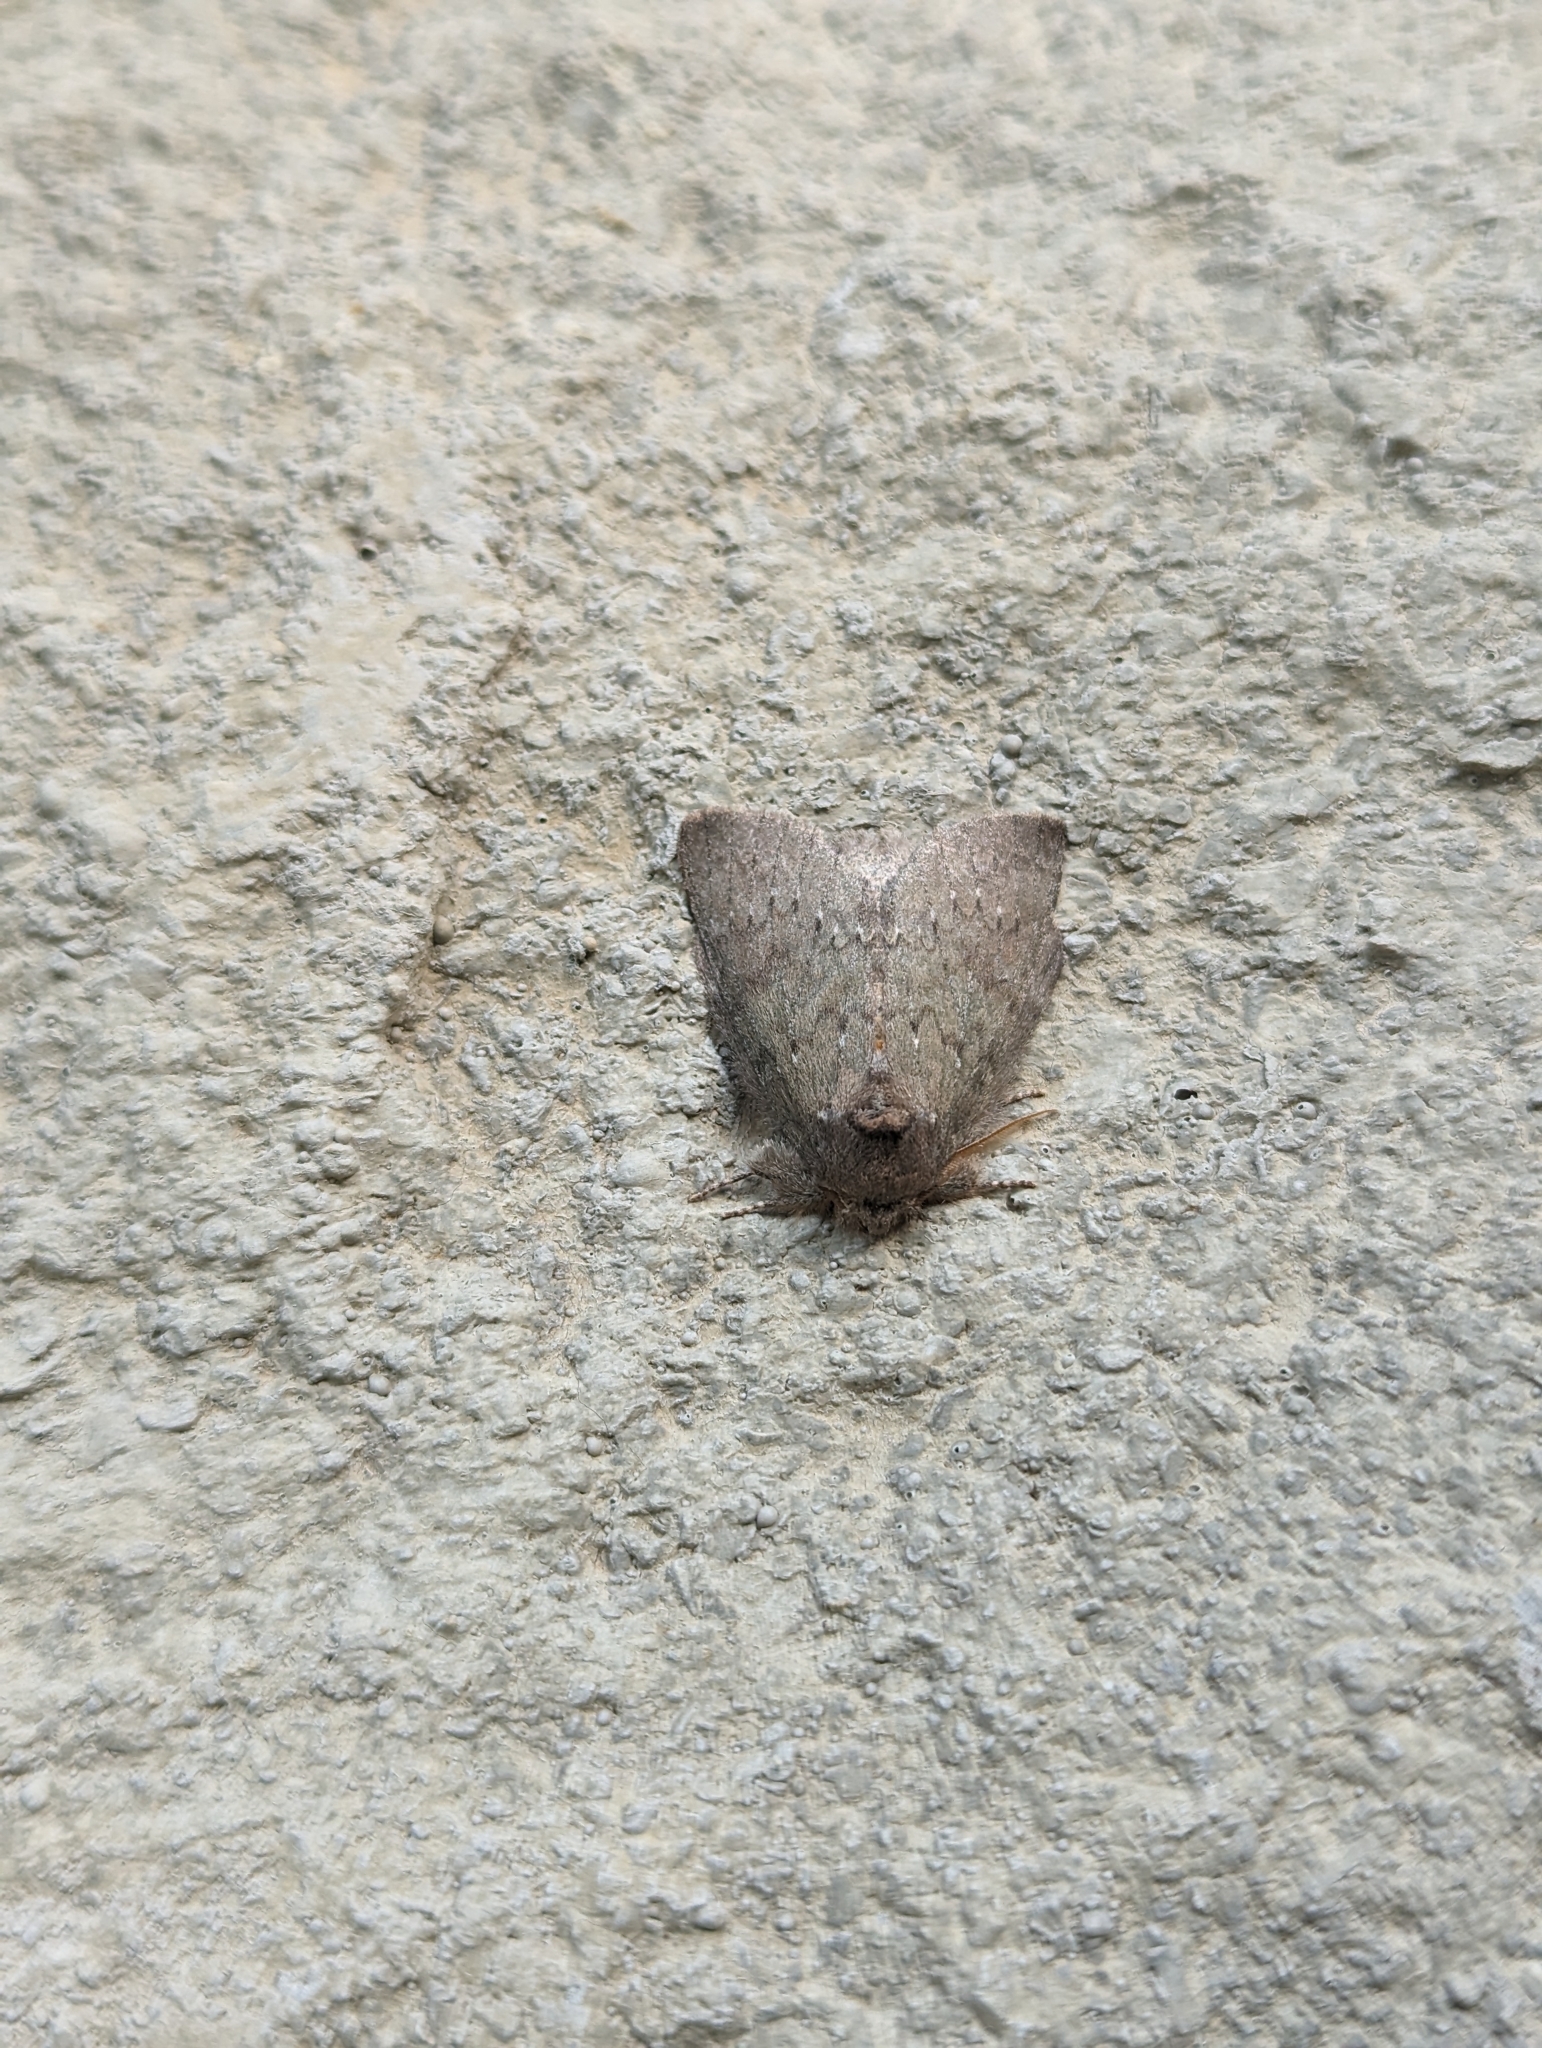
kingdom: Animalia
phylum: Arthropoda
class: Insecta
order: Lepidoptera
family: Notodontidae
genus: Misogada
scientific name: Misogada unicolor
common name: Drab prominent
